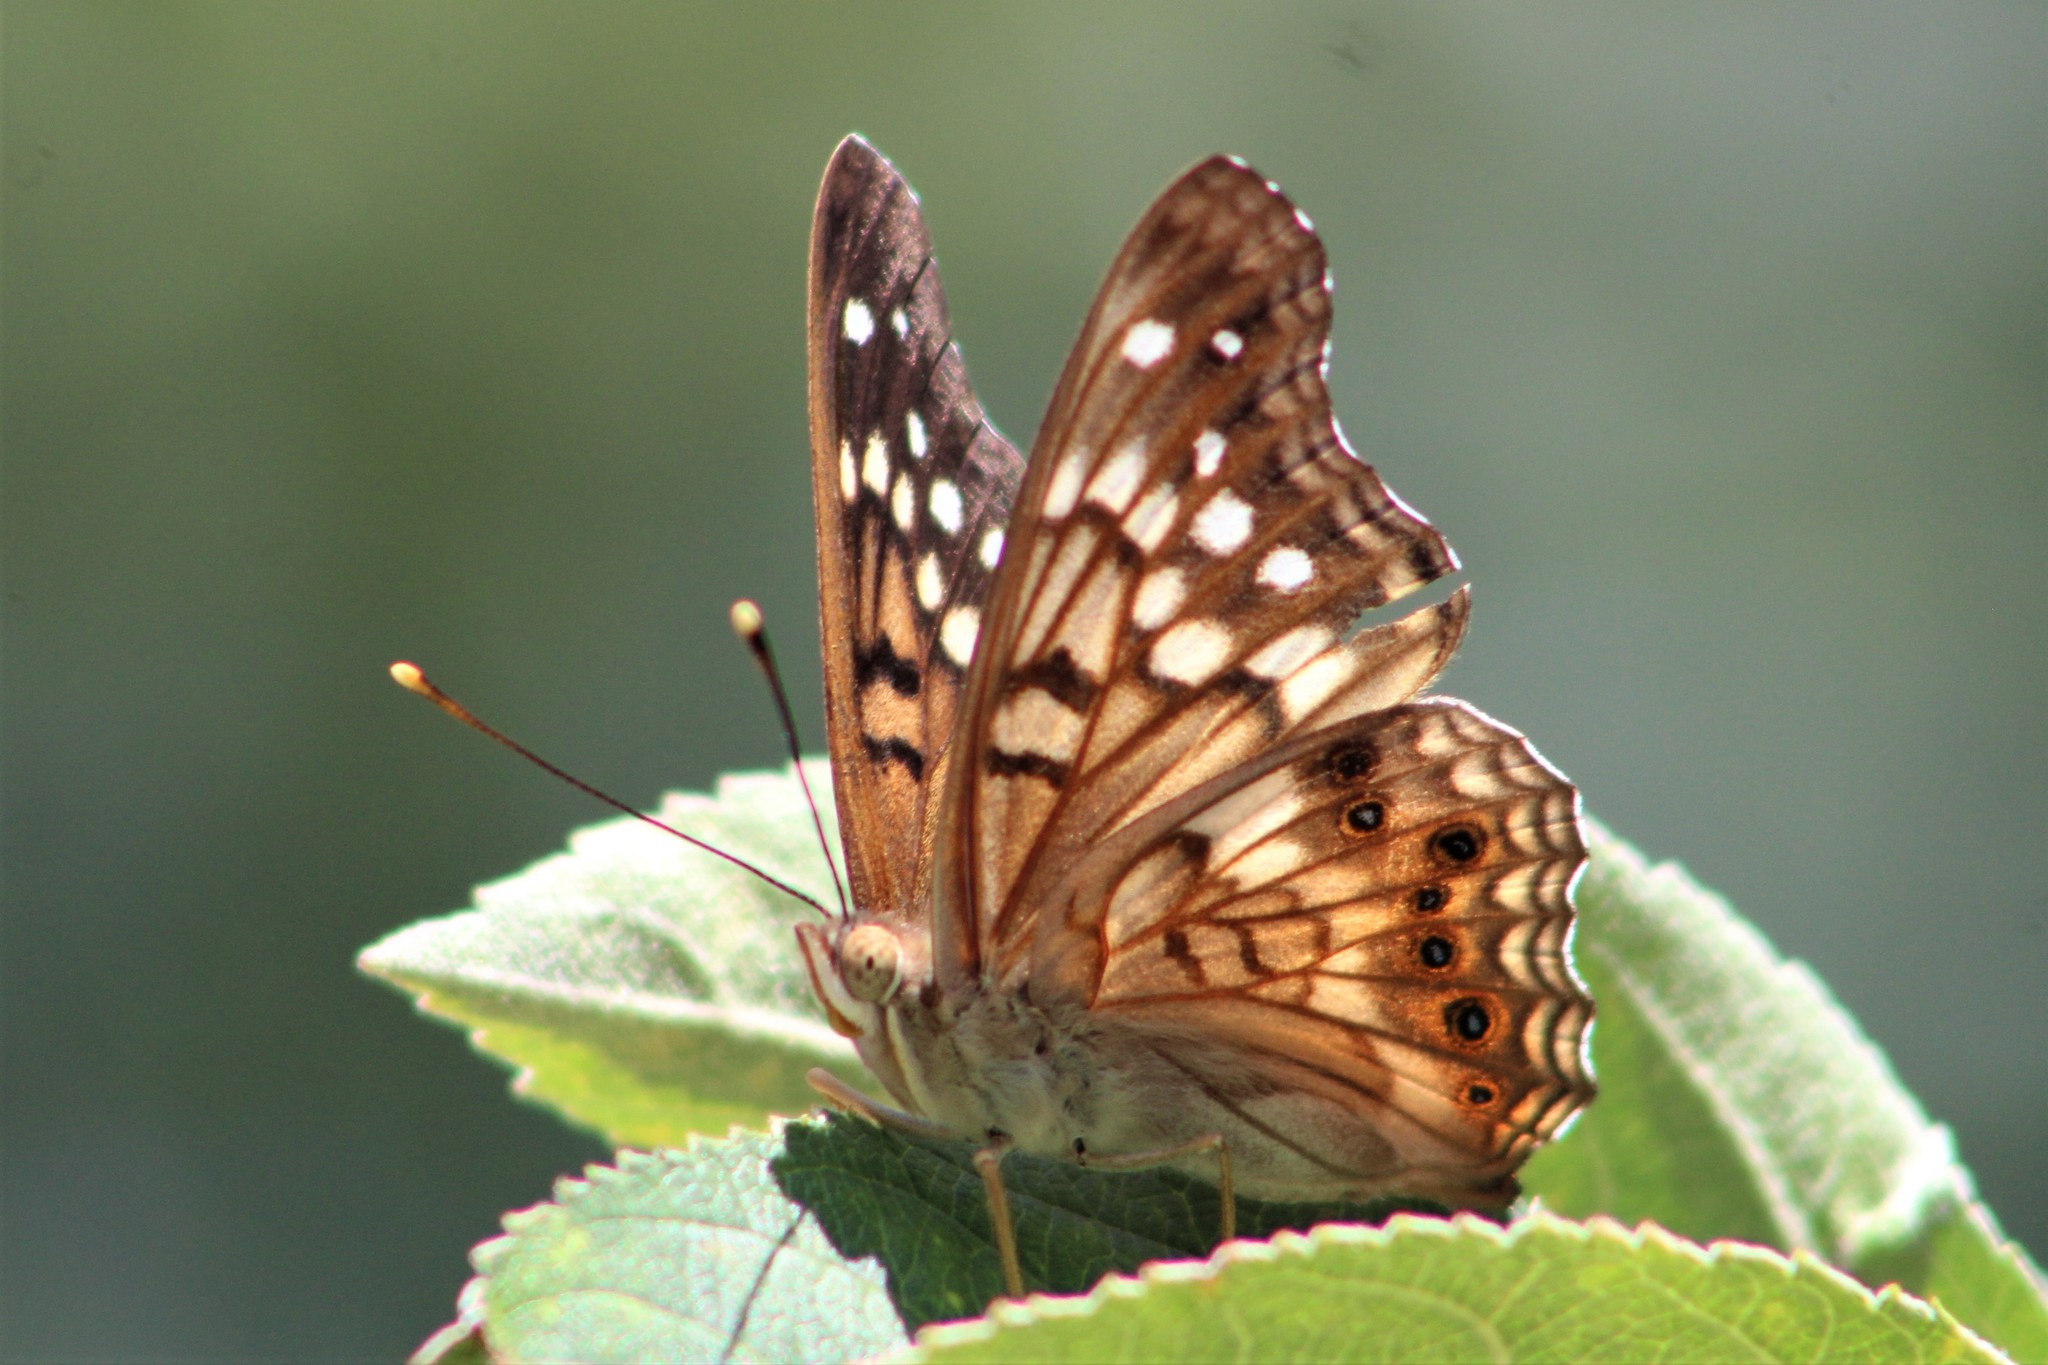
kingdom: Animalia
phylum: Arthropoda
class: Insecta
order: Lepidoptera
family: Nymphalidae
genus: Asterocampa
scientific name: Asterocampa clyton
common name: Tawny emperor
